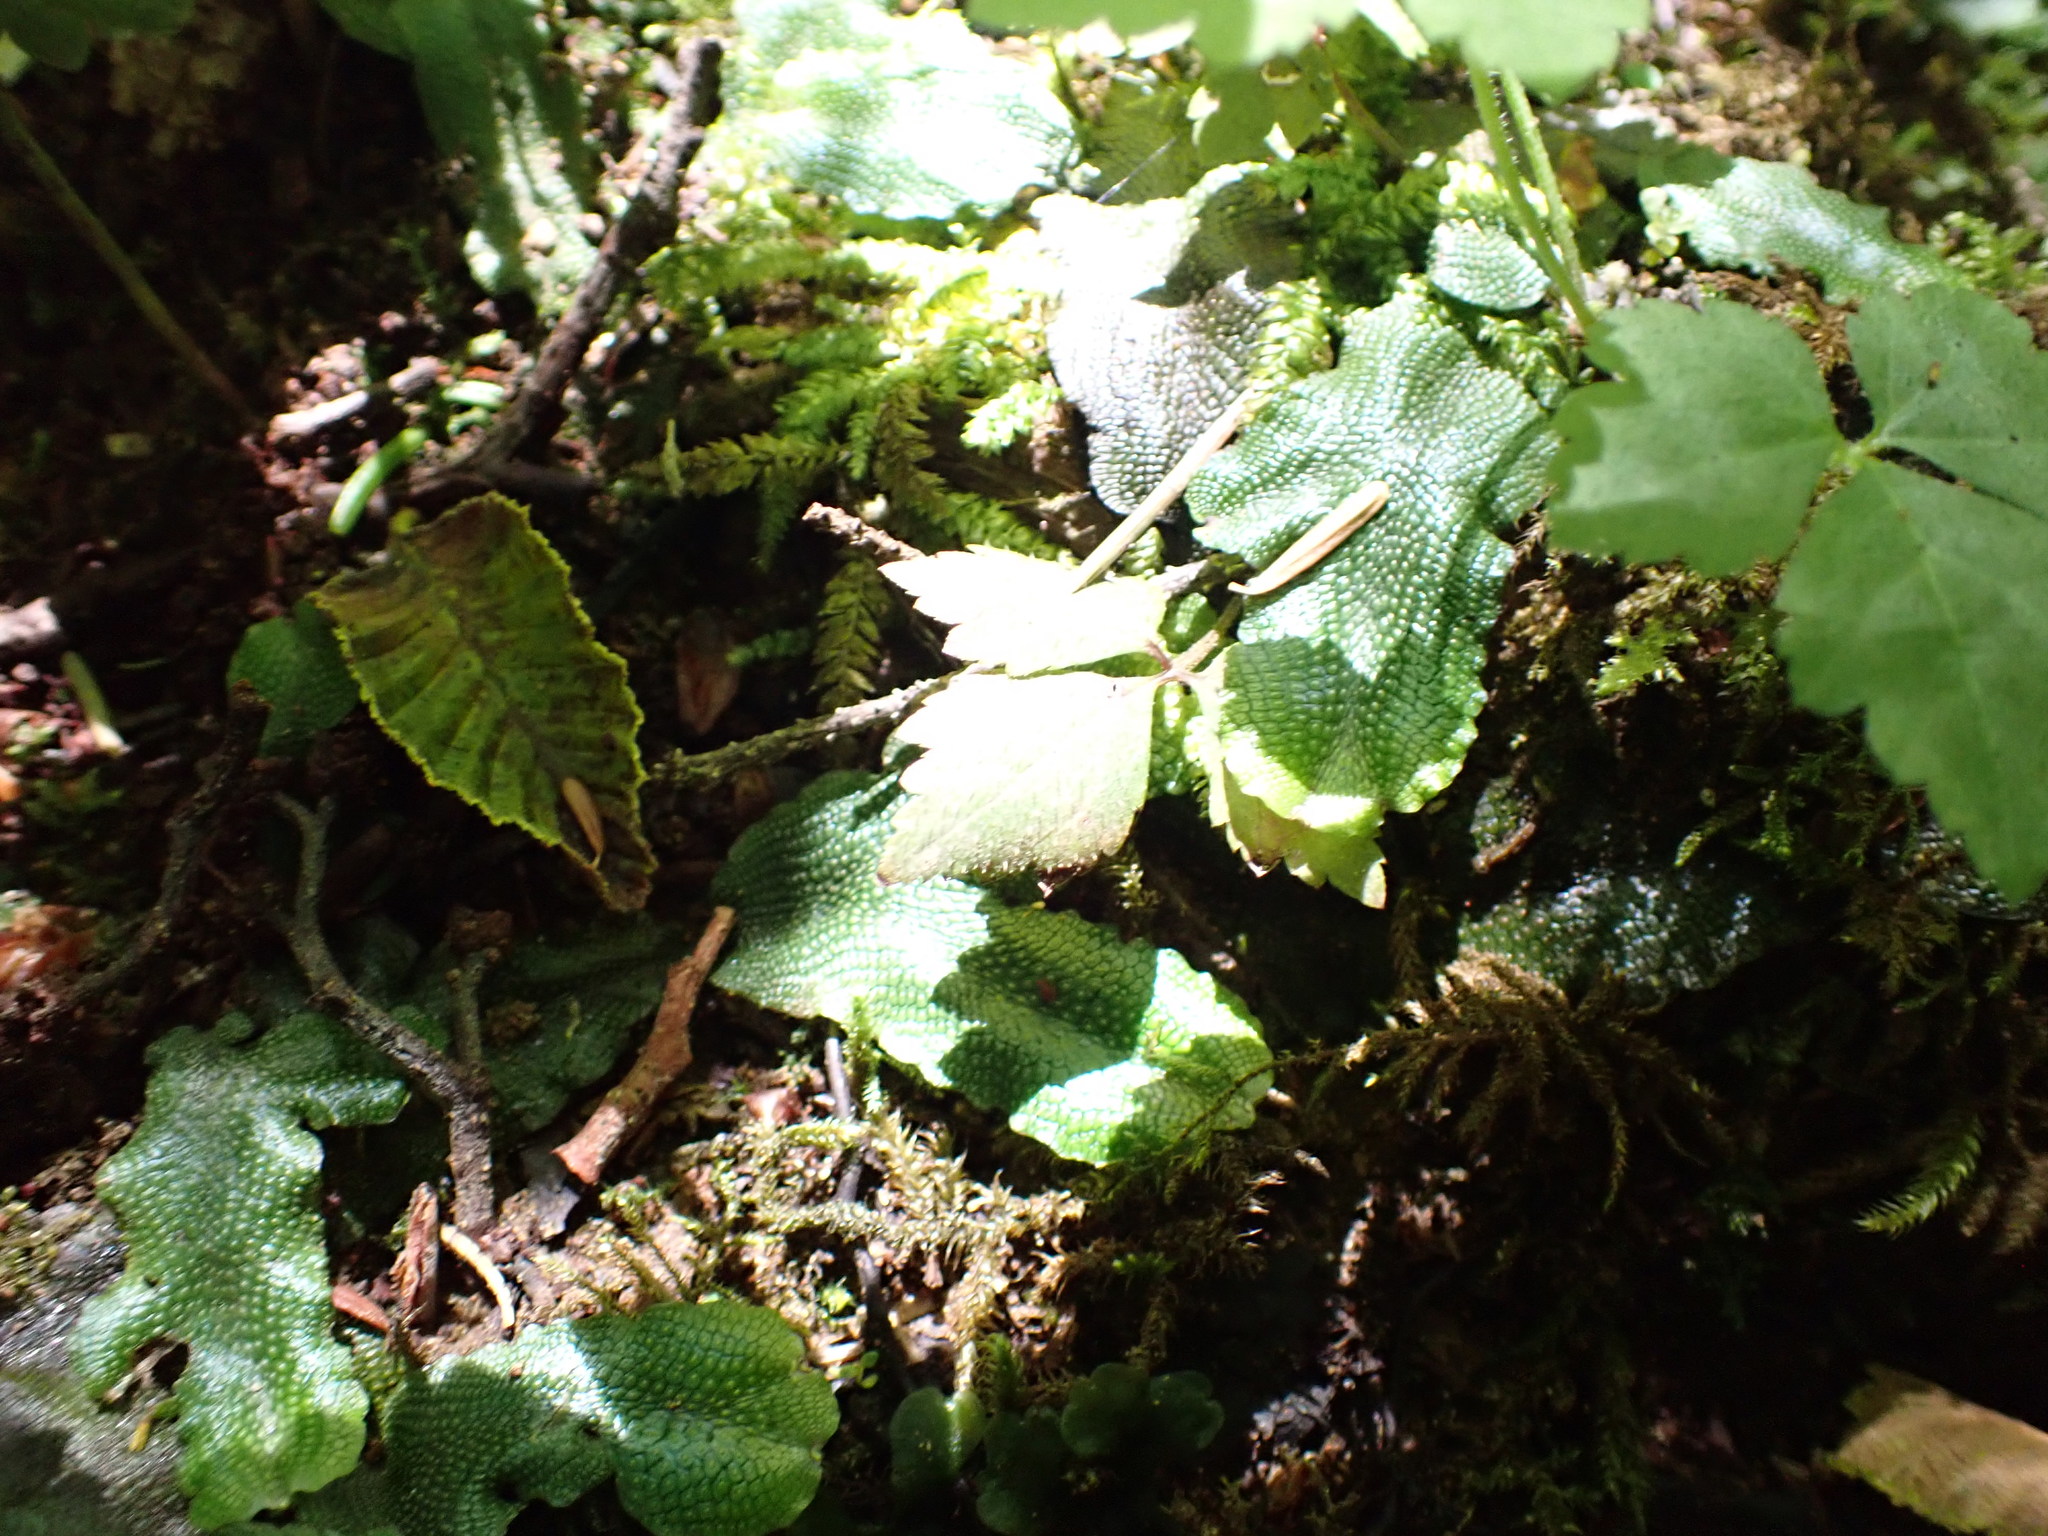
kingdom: Plantae
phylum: Marchantiophyta
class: Marchantiopsida
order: Marchantiales
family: Conocephalaceae
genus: Conocephalum
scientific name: Conocephalum salebrosum
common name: Cat-tongue liverwort
